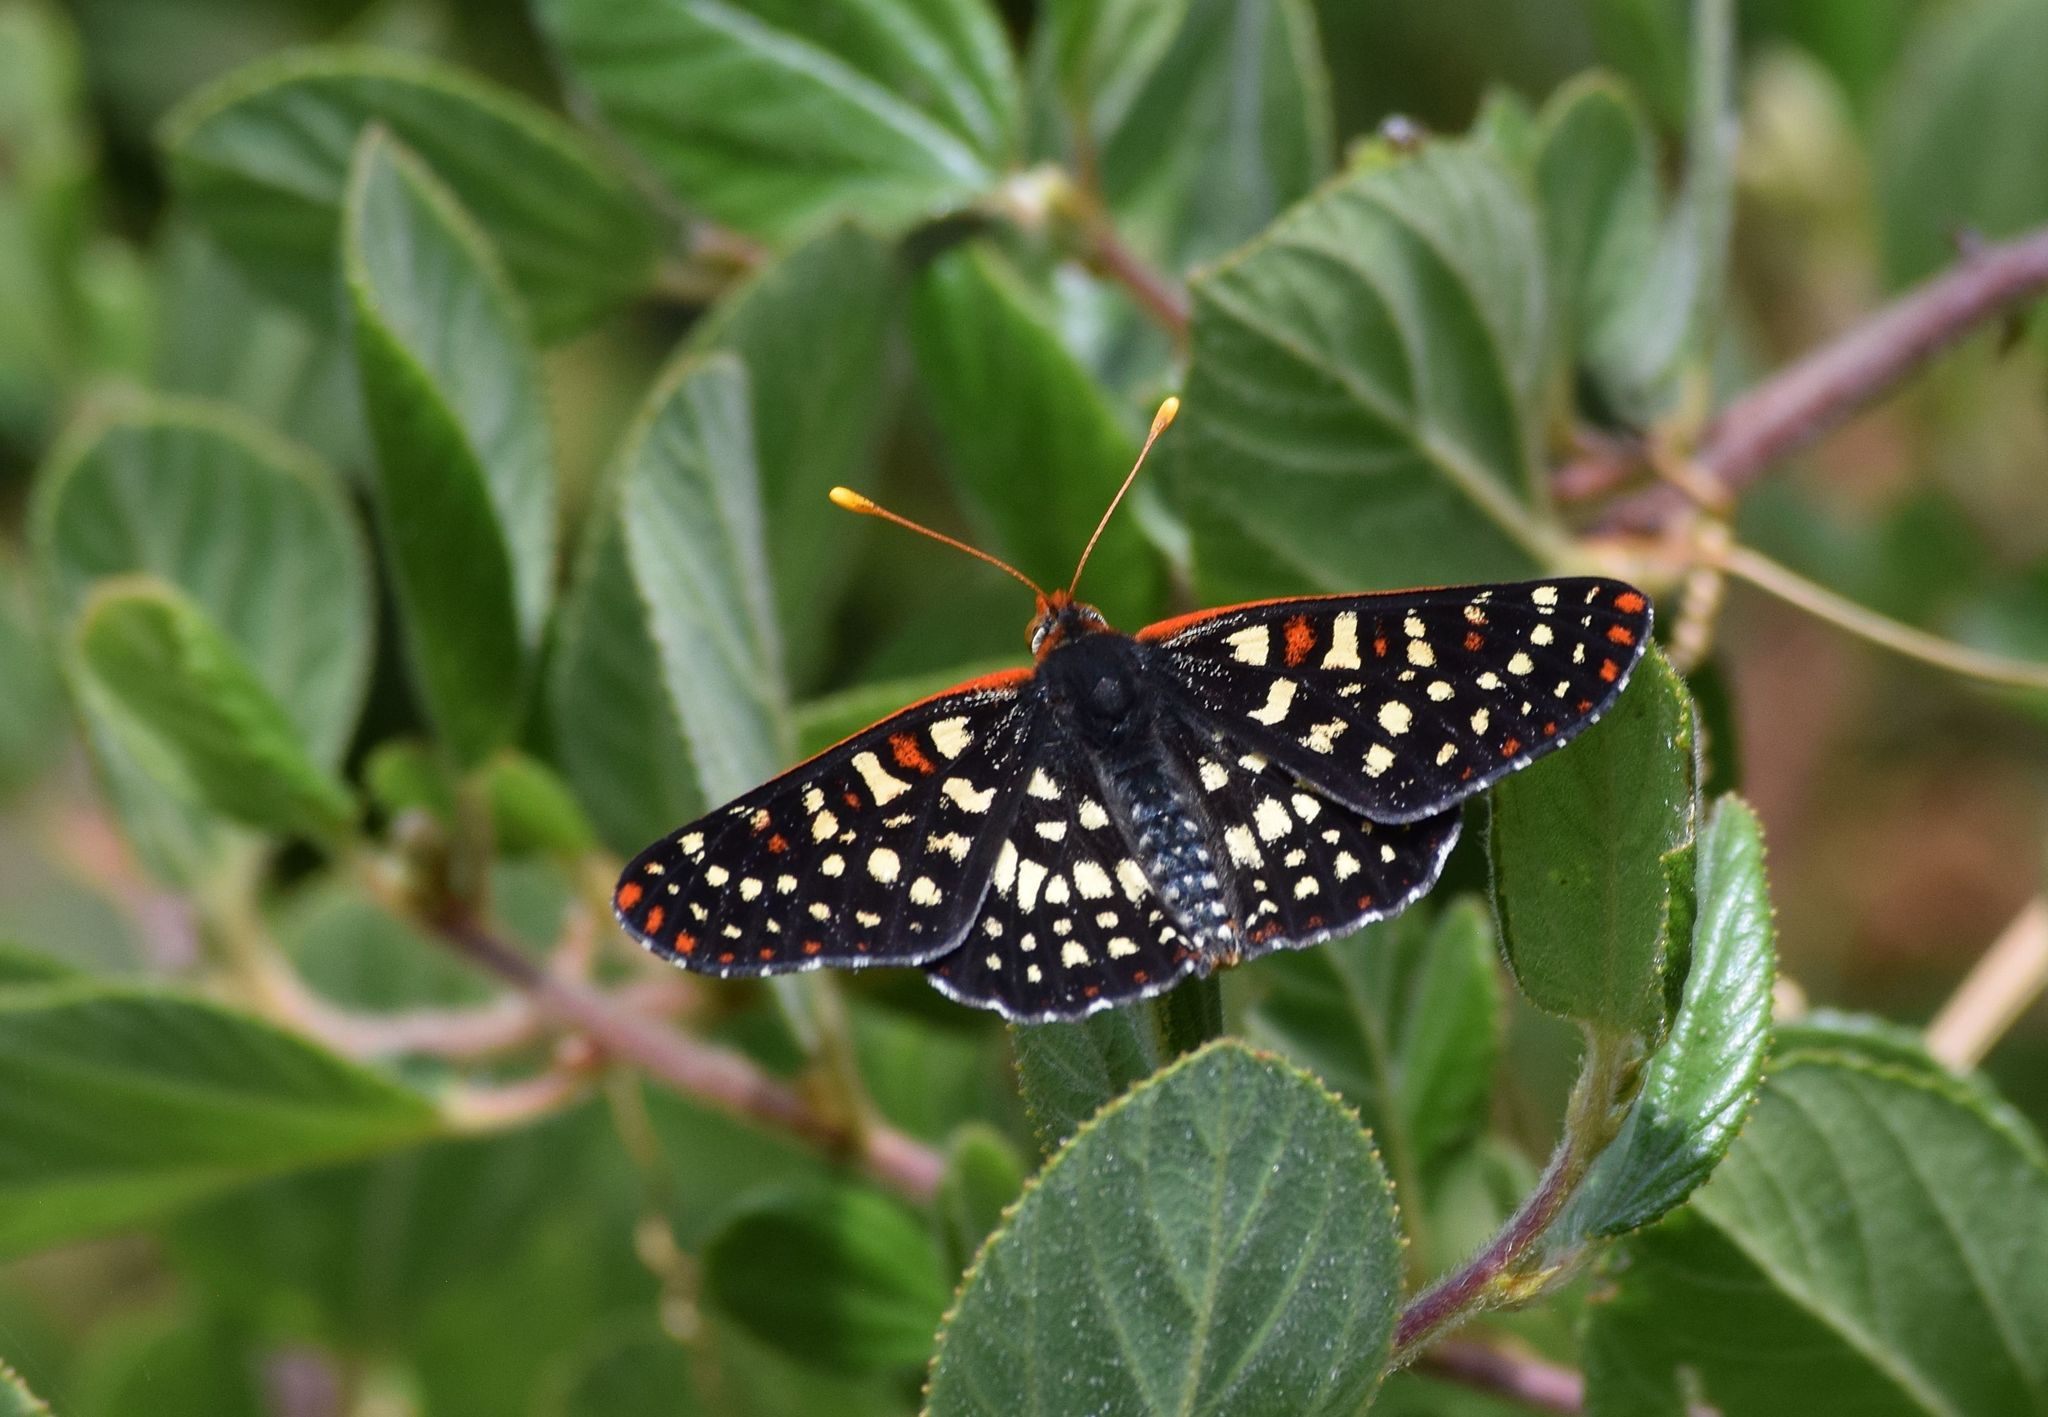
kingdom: Animalia
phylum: Arthropoda
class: Insecta
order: Lepidoptera
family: Nymphalidae
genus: Occidryas
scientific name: Occidryas chalcedona
